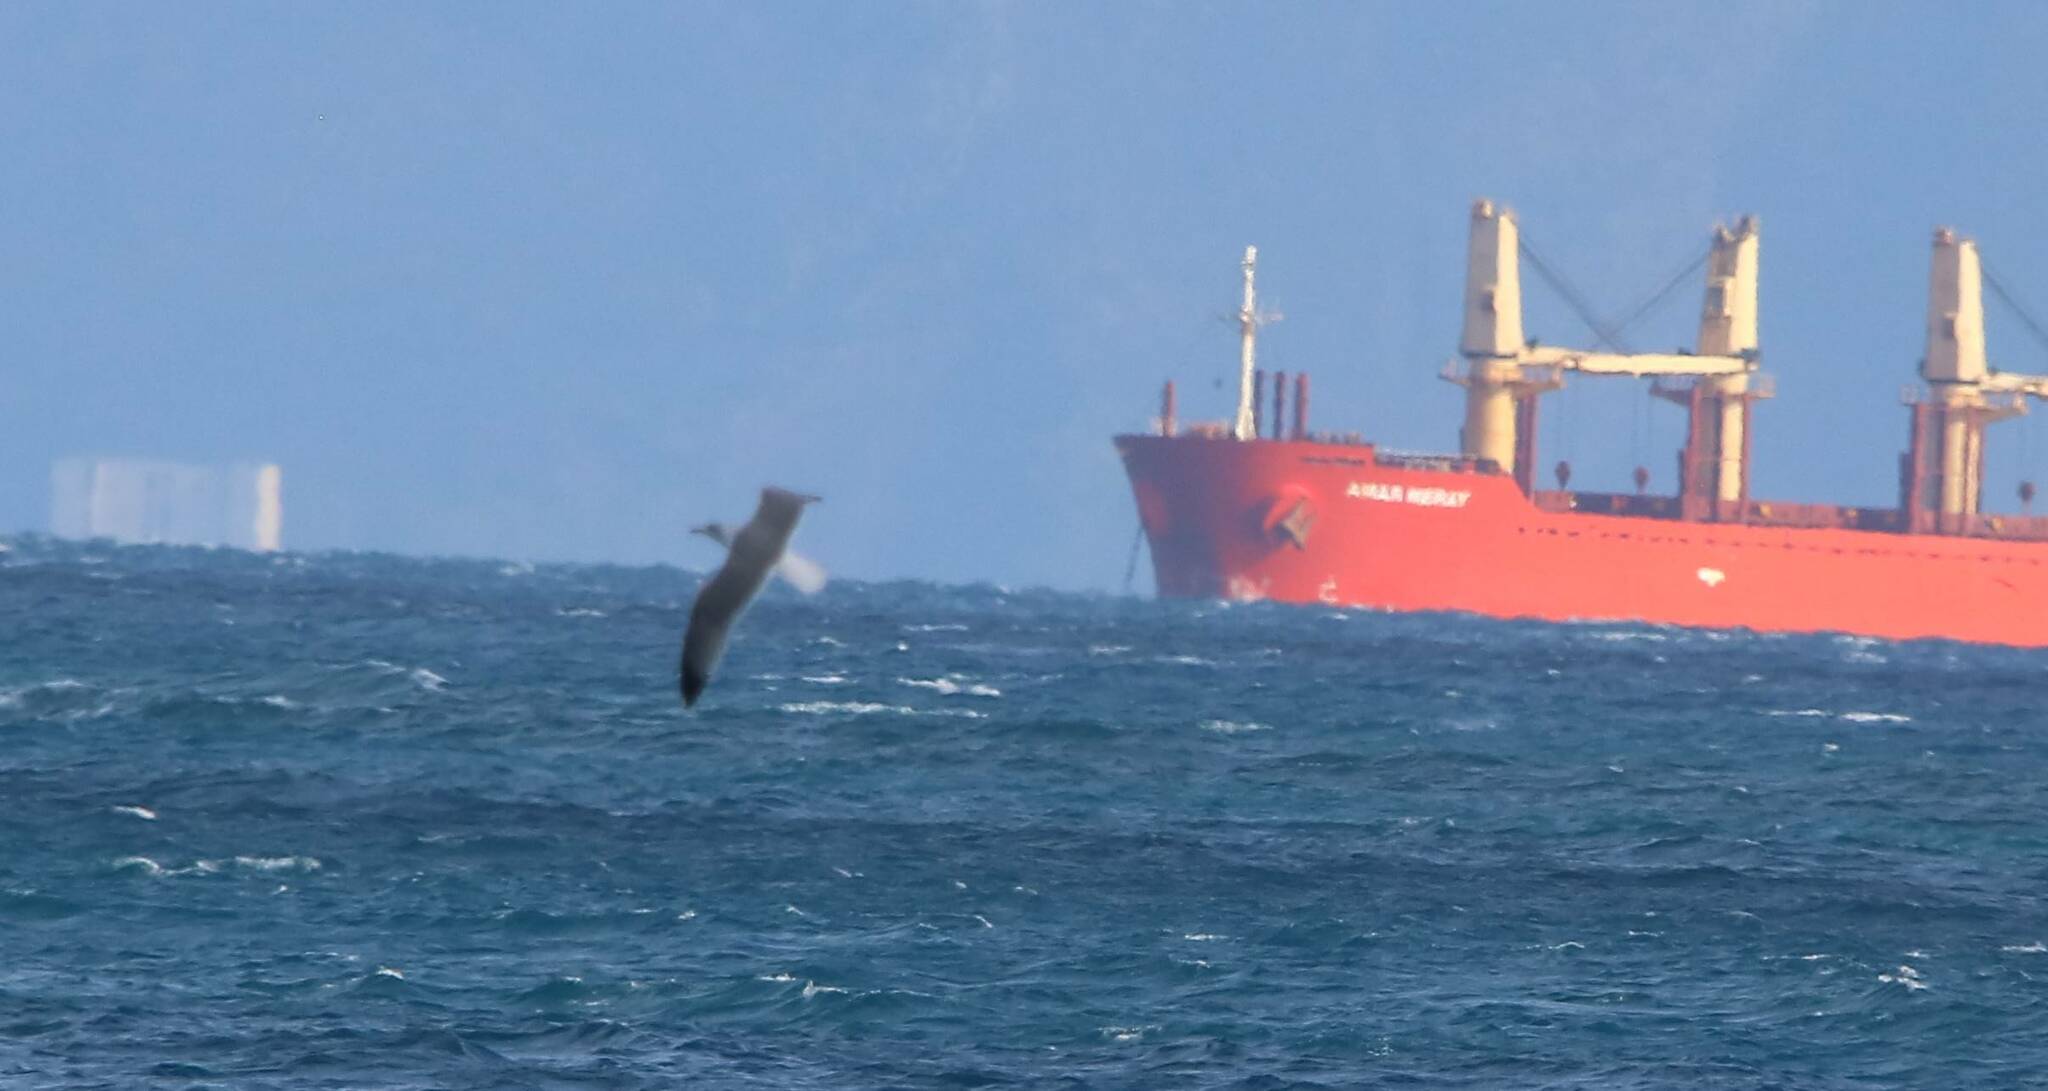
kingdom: Animalia
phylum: Chordata
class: Aves
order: Charadriiformes
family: Laridae
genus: Larus
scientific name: Larus michahellis
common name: Yellow-legged gull
